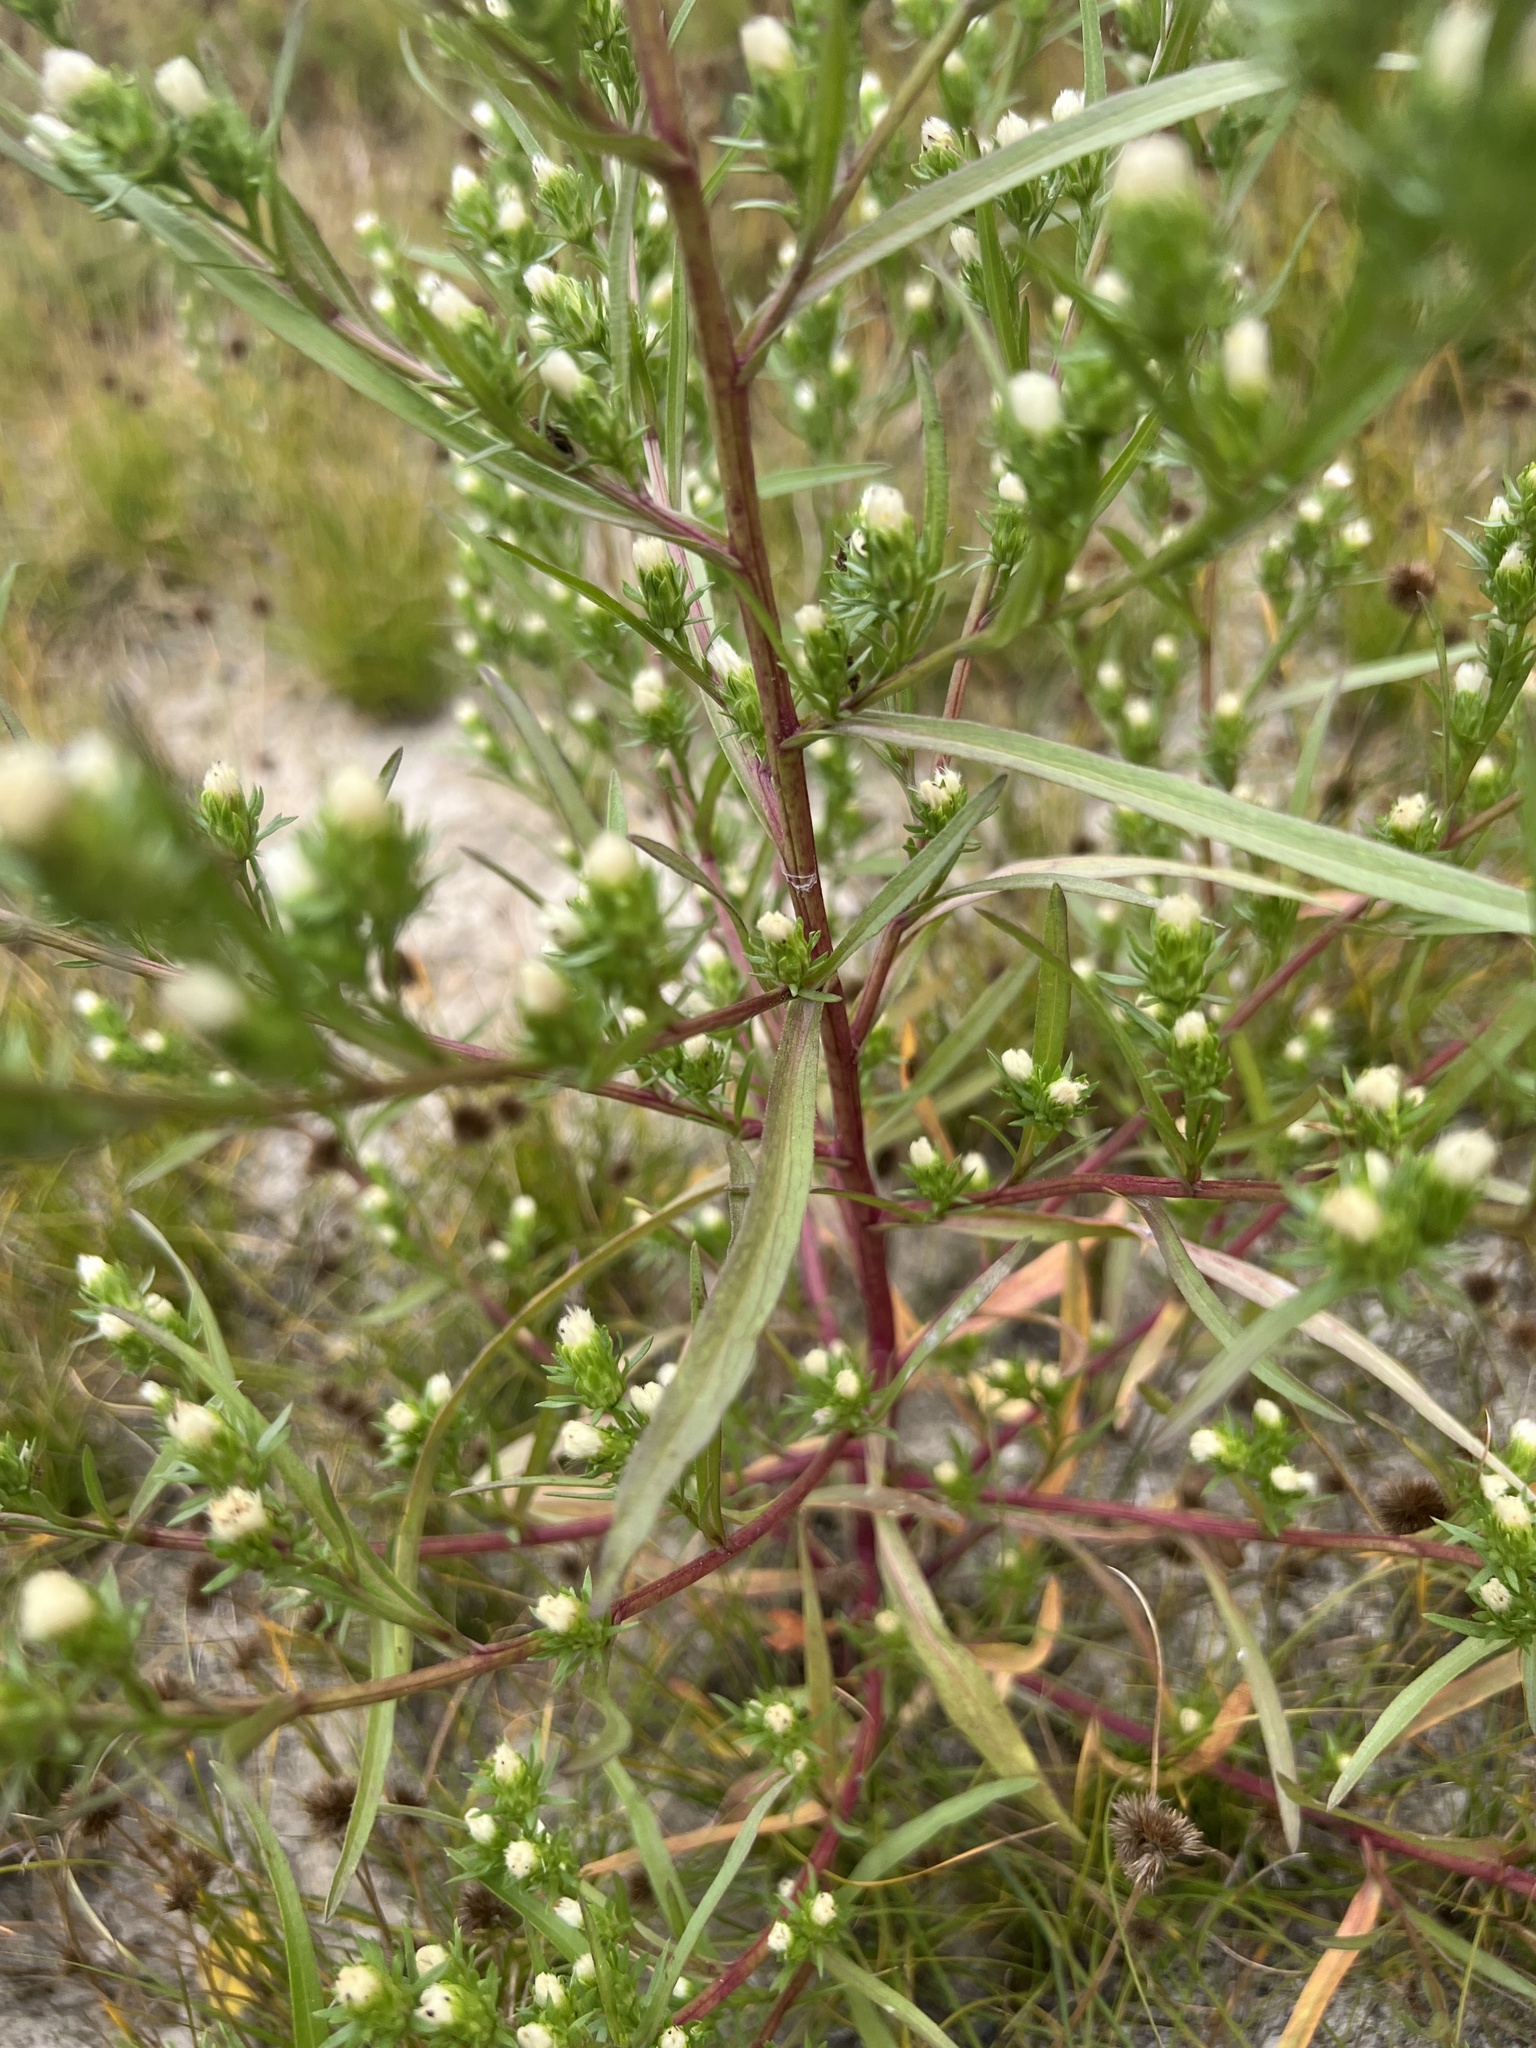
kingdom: Plantae
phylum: Tracheophyta
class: Magnoliopsida
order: Asterales
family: Asteraceae
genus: Symphyotrichum
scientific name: Symphyotrichum ciliatum
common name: Rayless annual aster
